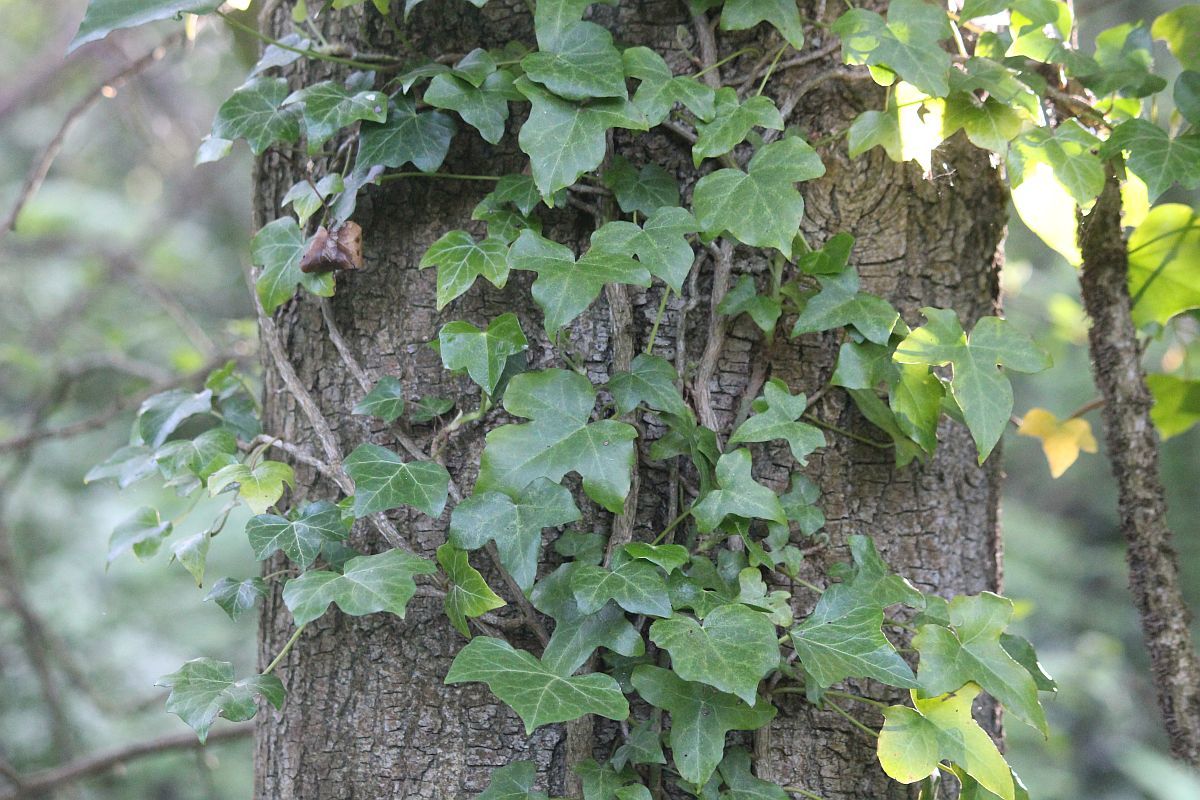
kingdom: Plantae
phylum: Tracheophyta
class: Magnoliopsida
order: Apiales
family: Araliaceae
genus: Hedera
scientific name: Hedera helix
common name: Ivy
